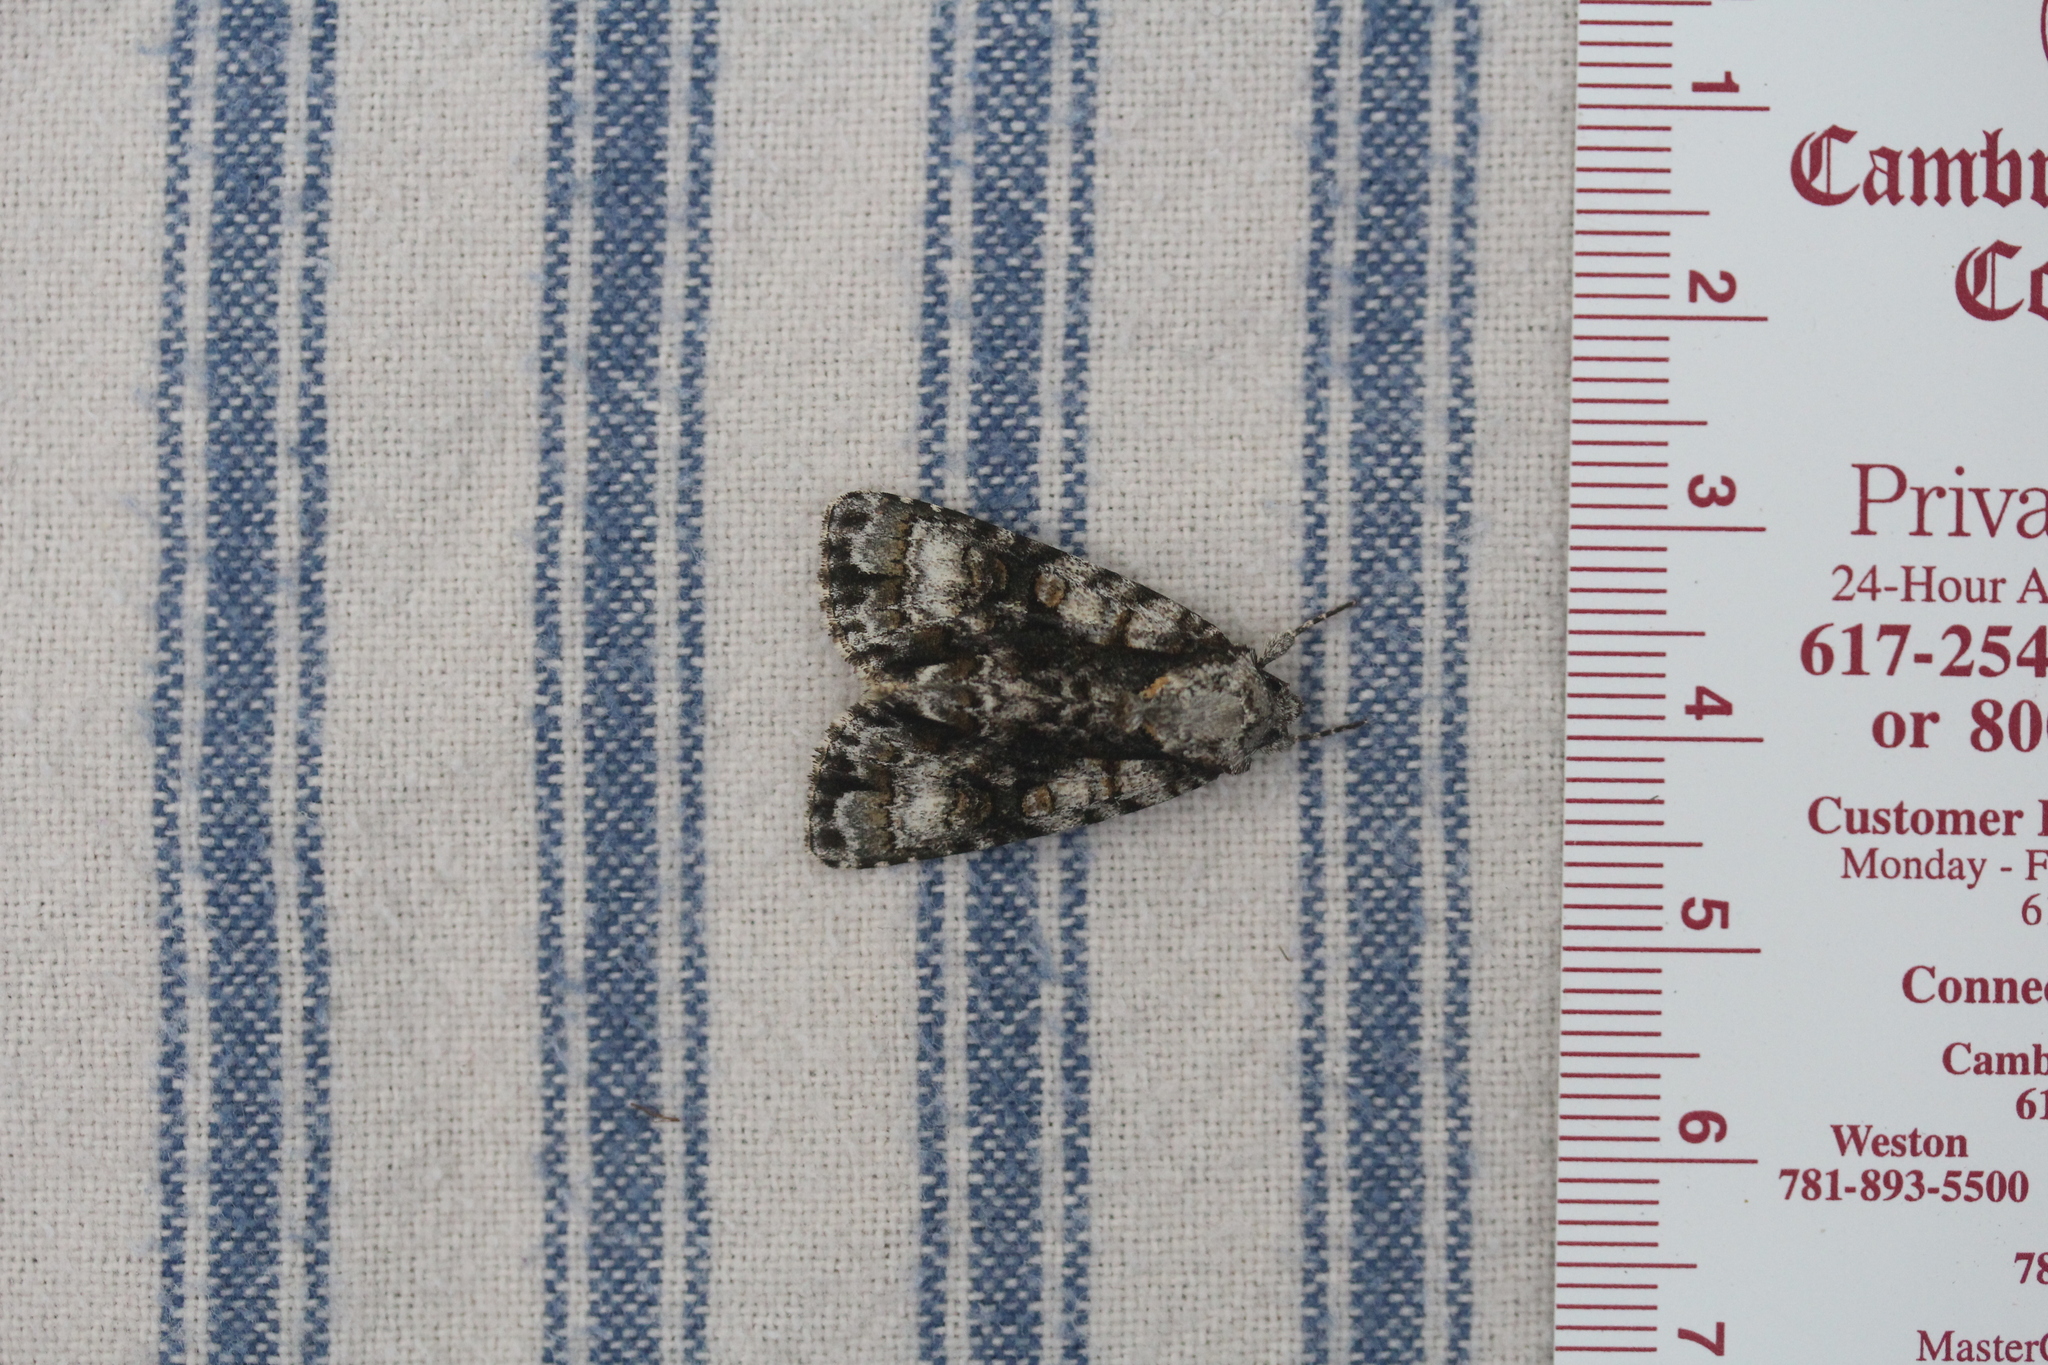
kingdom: Animalia
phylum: Arthropoda
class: Insecta
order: Lepidoptera
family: Noctuidae
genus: Acronicta
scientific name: Acronicta superans
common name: Splendid dagger
